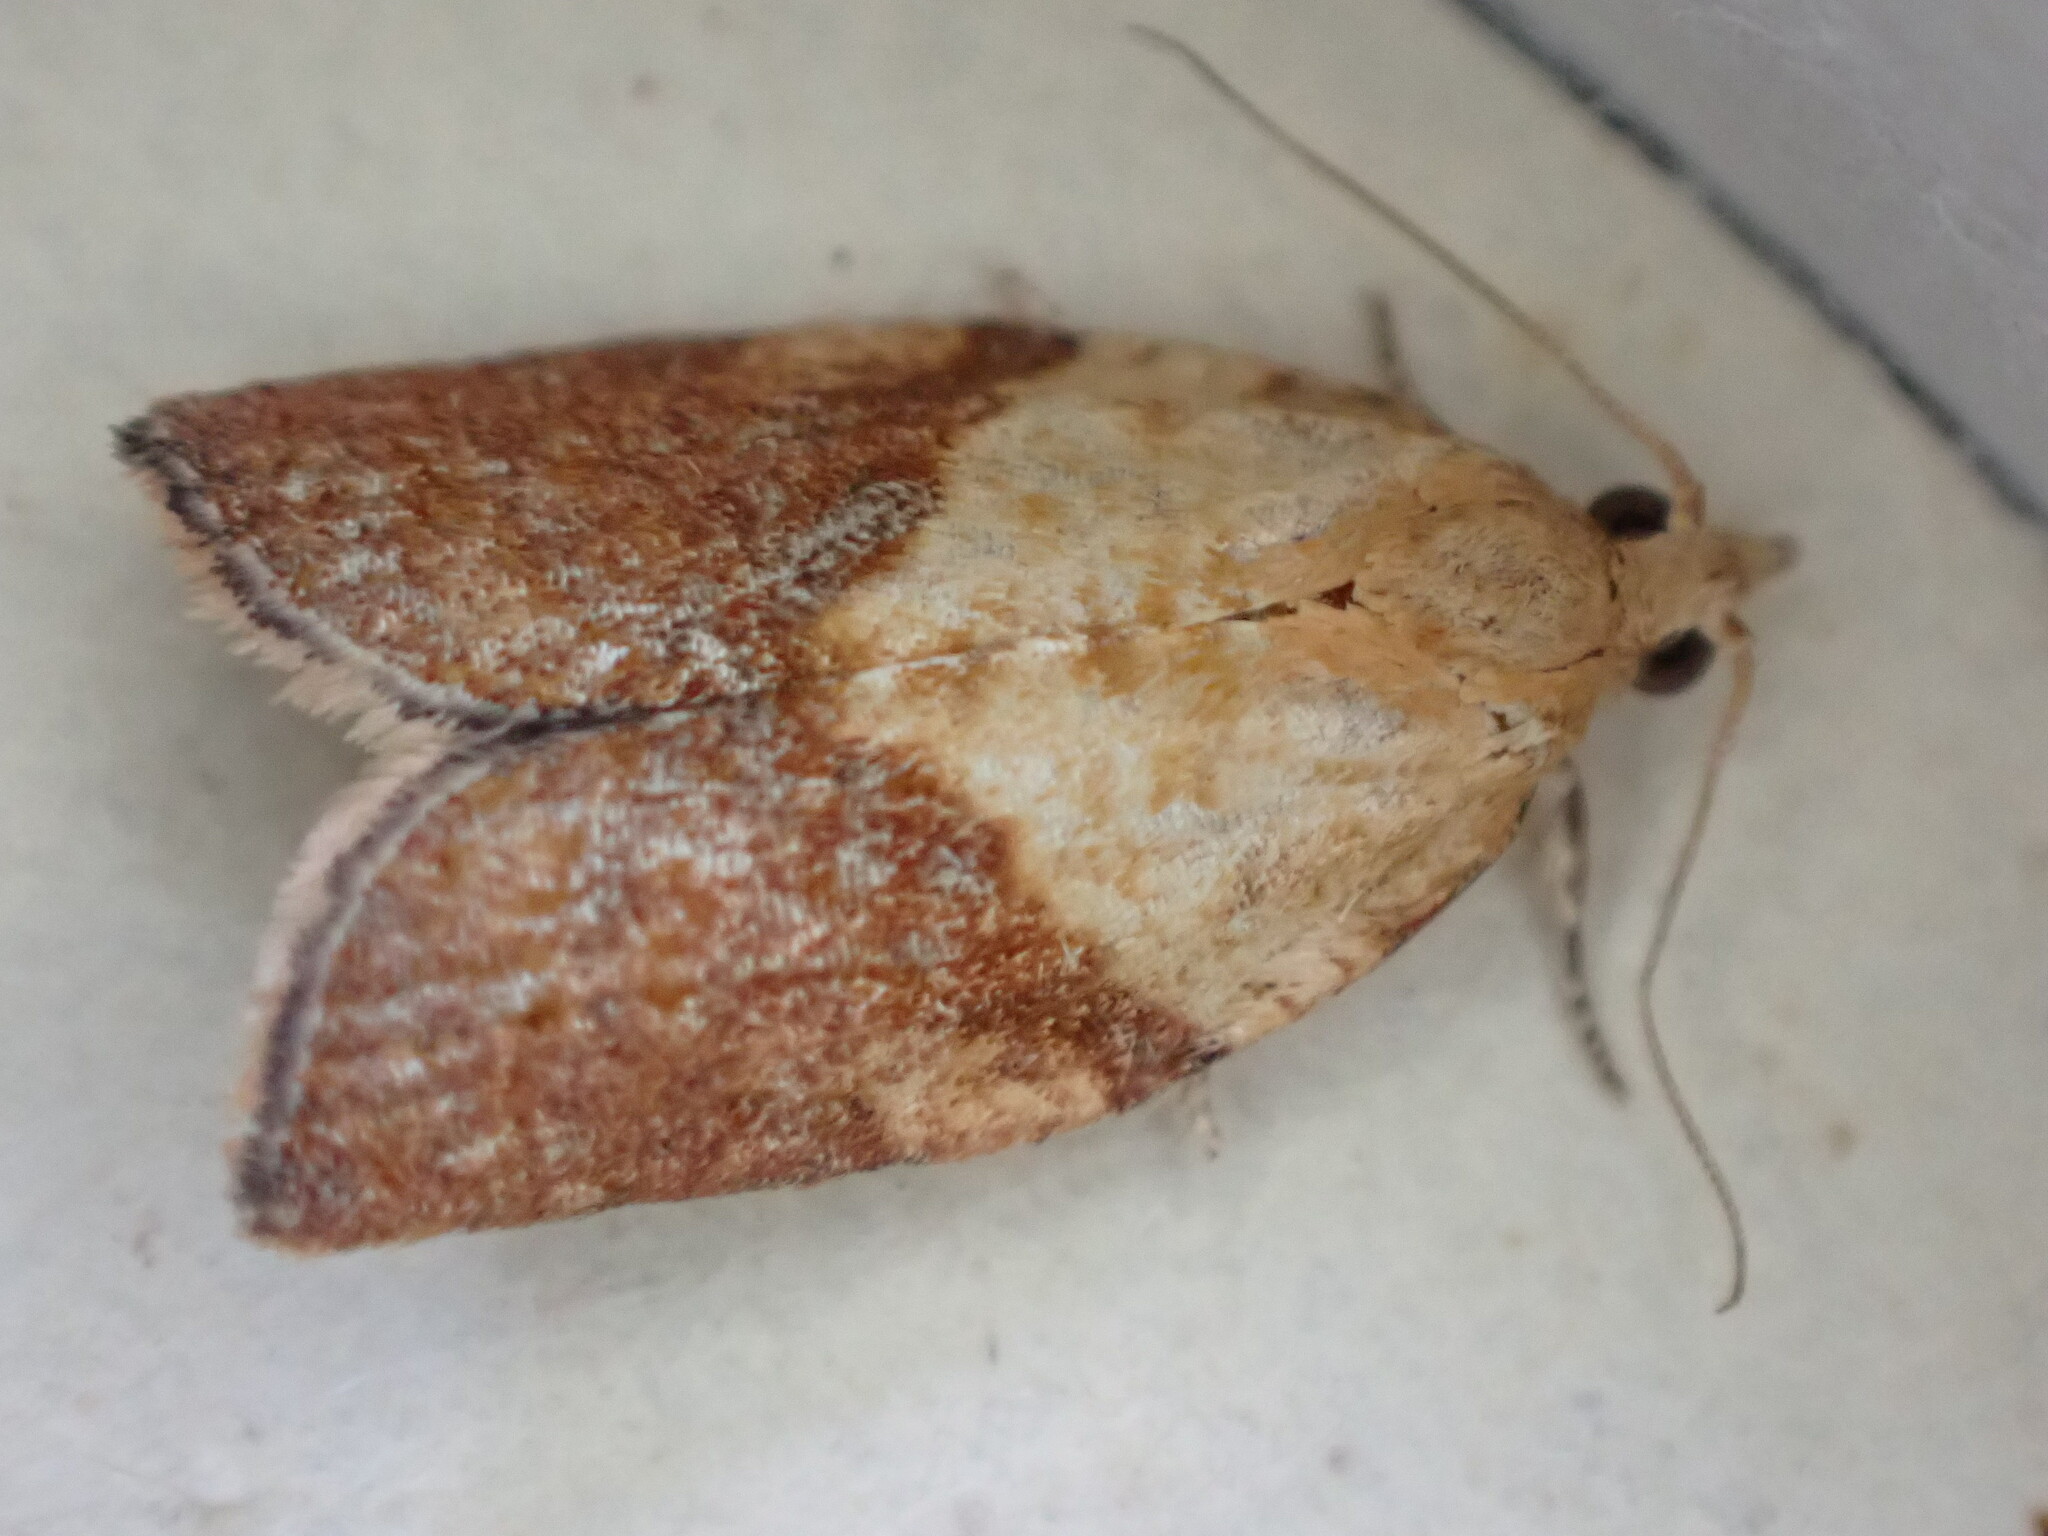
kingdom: Animalia
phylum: Arthropoda
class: Insecta
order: Lepidoptera
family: Tortricidae
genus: Epiphyas
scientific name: Epiphyas postvittana
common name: Light brown apple moth
